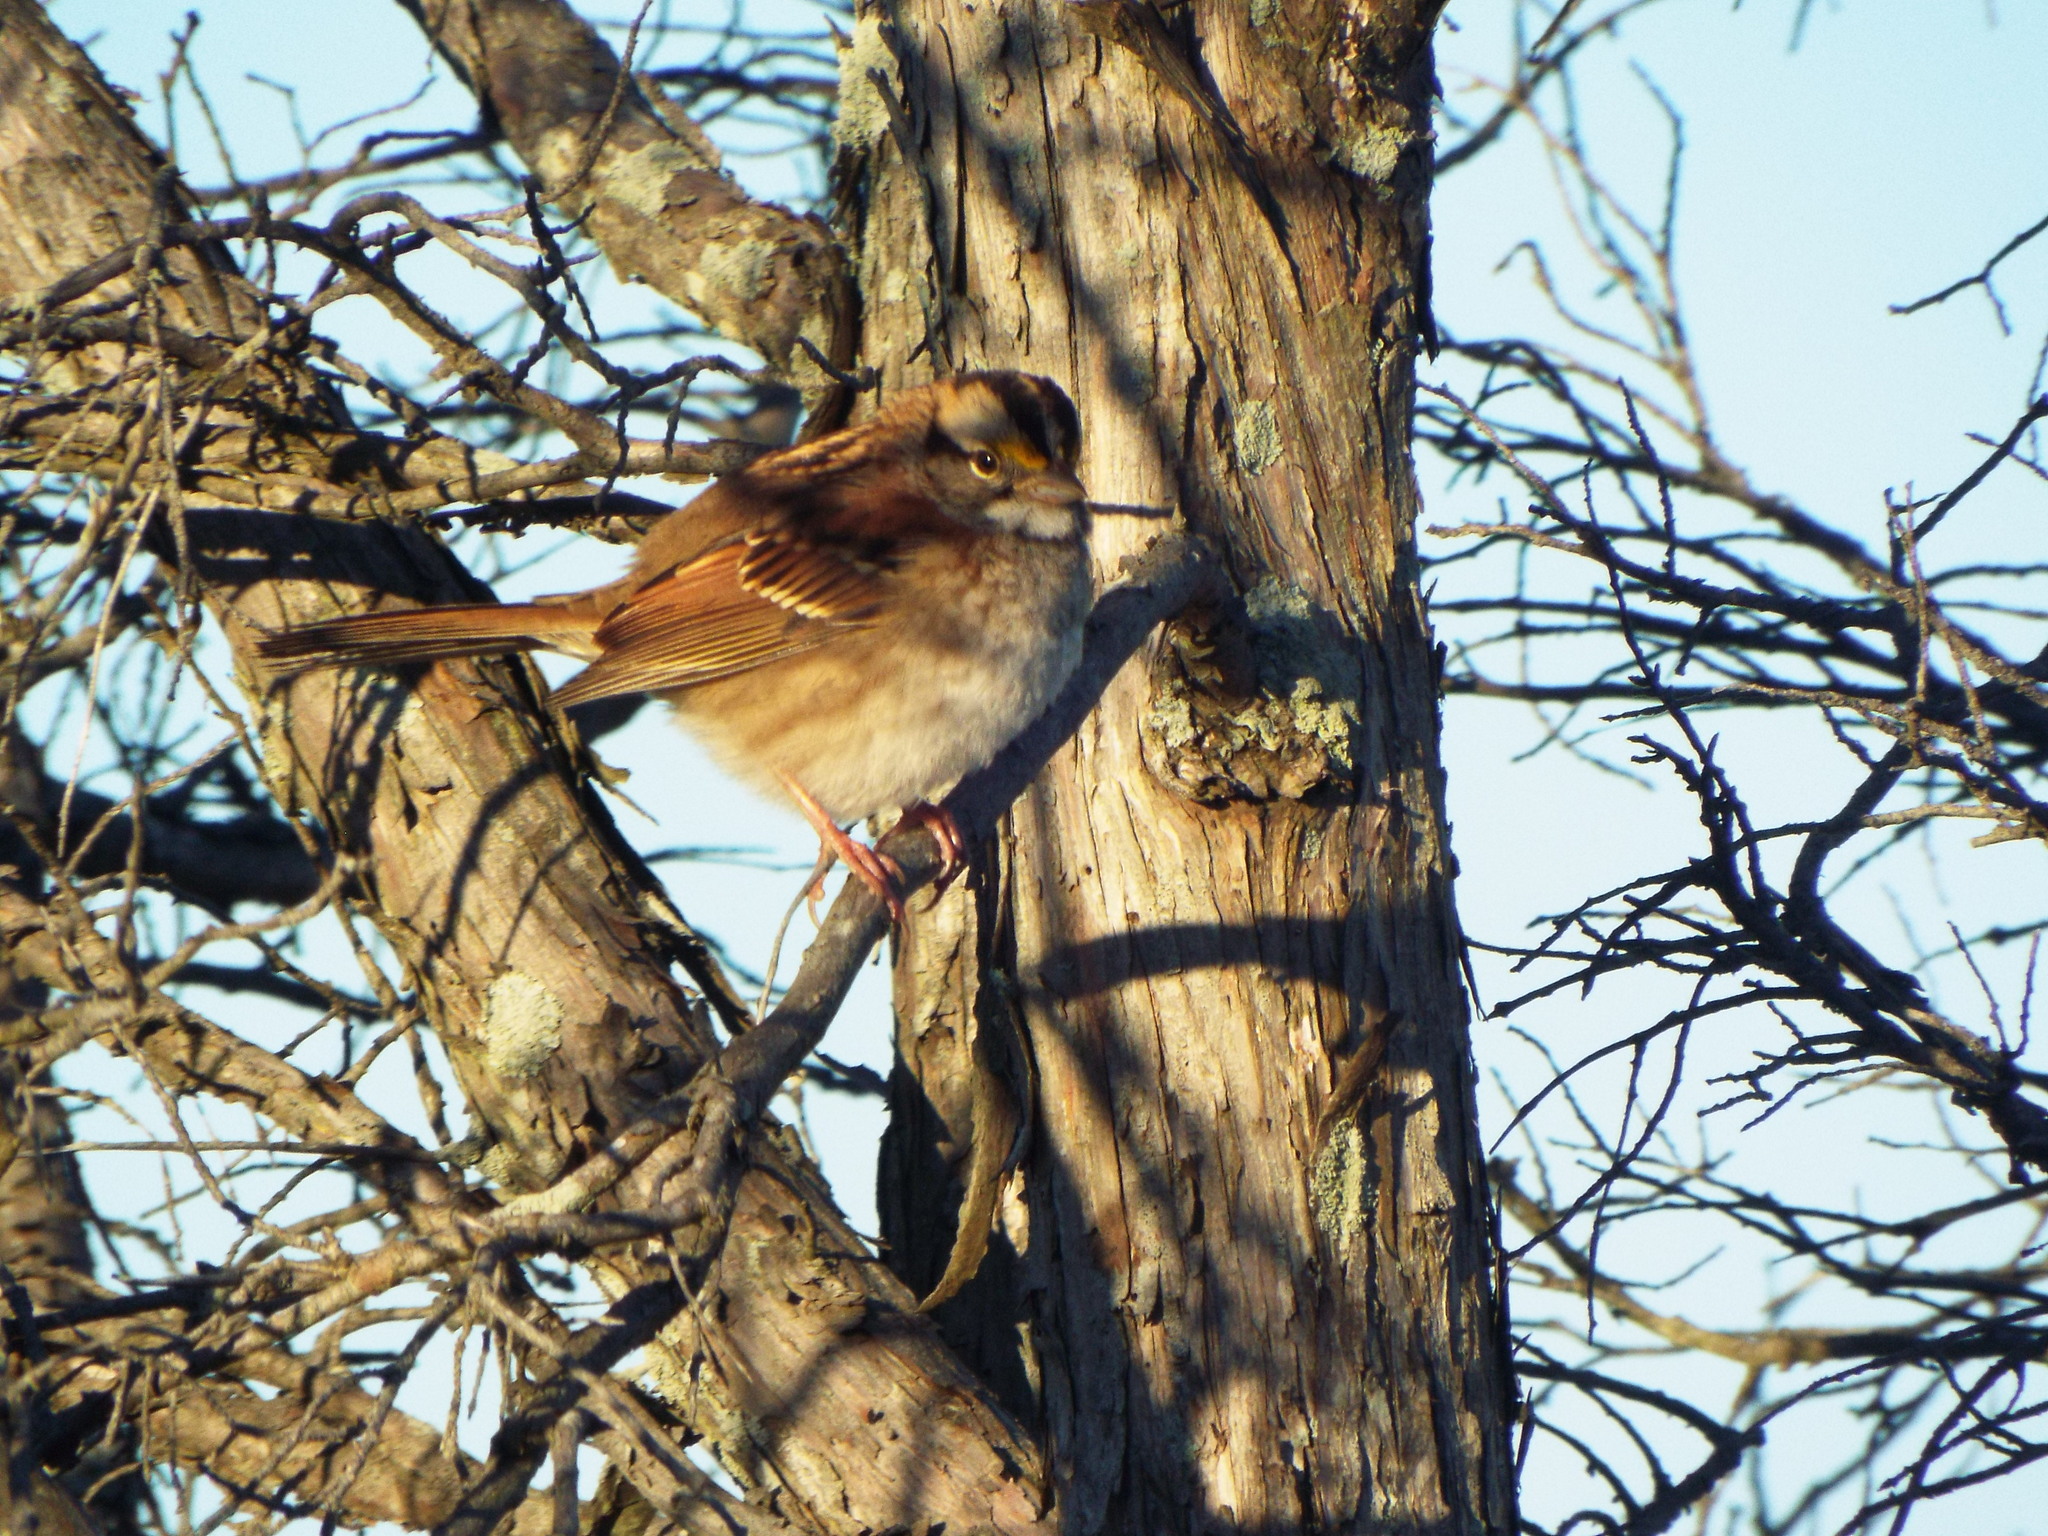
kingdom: Animalia
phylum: Chordata
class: Aves
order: Passeriformes
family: Passerellidae
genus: Zonotrichia
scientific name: Zonotrichia albicollis
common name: White-throated sparrow
